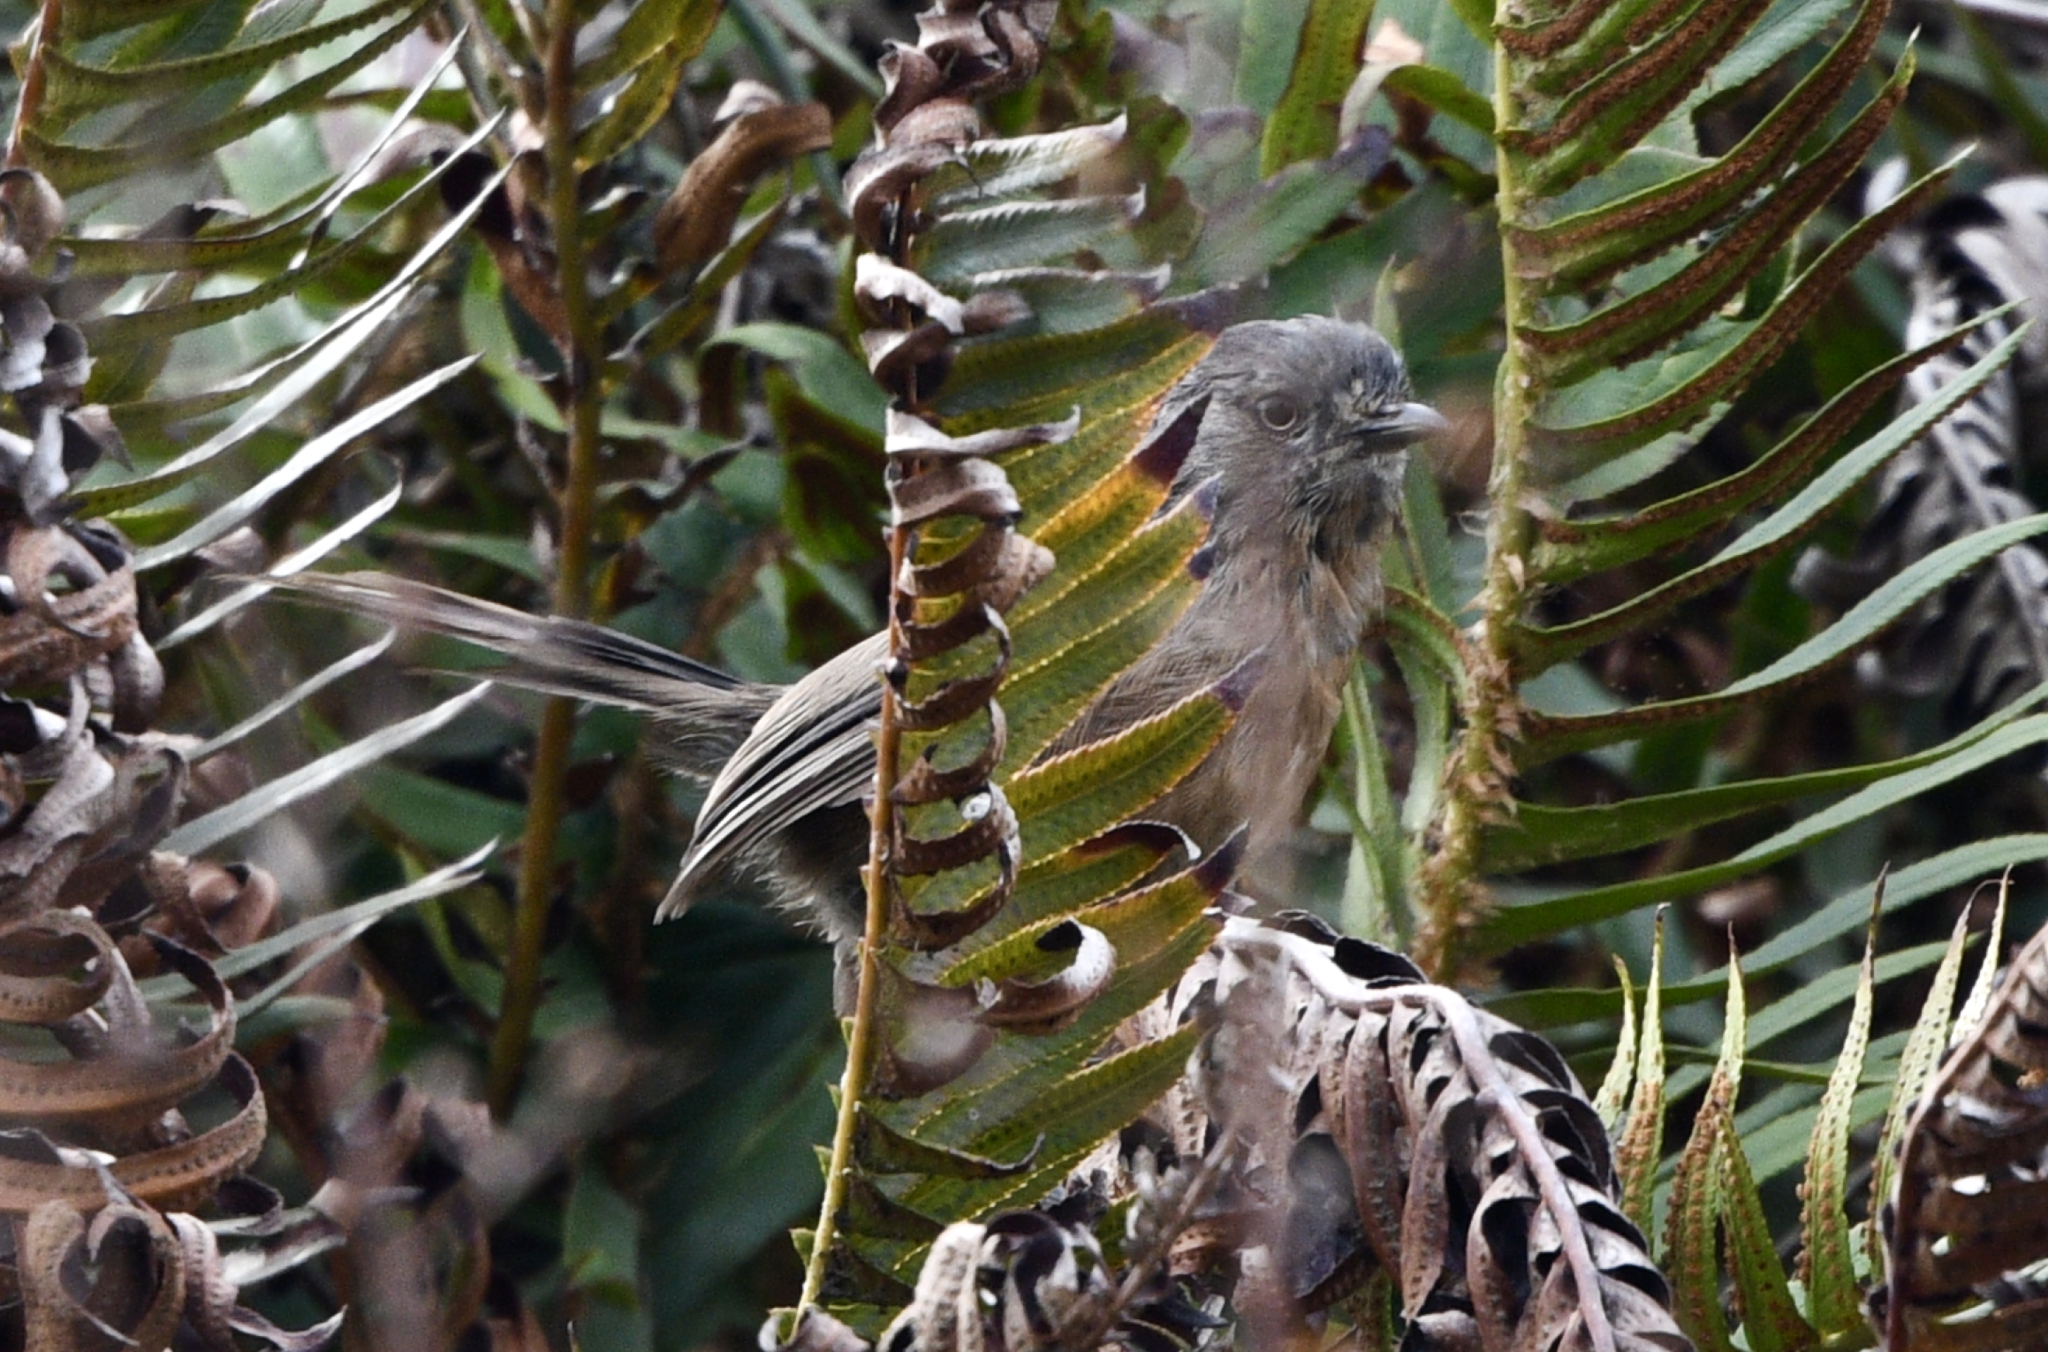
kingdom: Animalia
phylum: Chordata
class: Aves
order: Passeriformes
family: Sylviidae
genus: Chamaea
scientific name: Chamaea fasciata
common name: Wrentit
